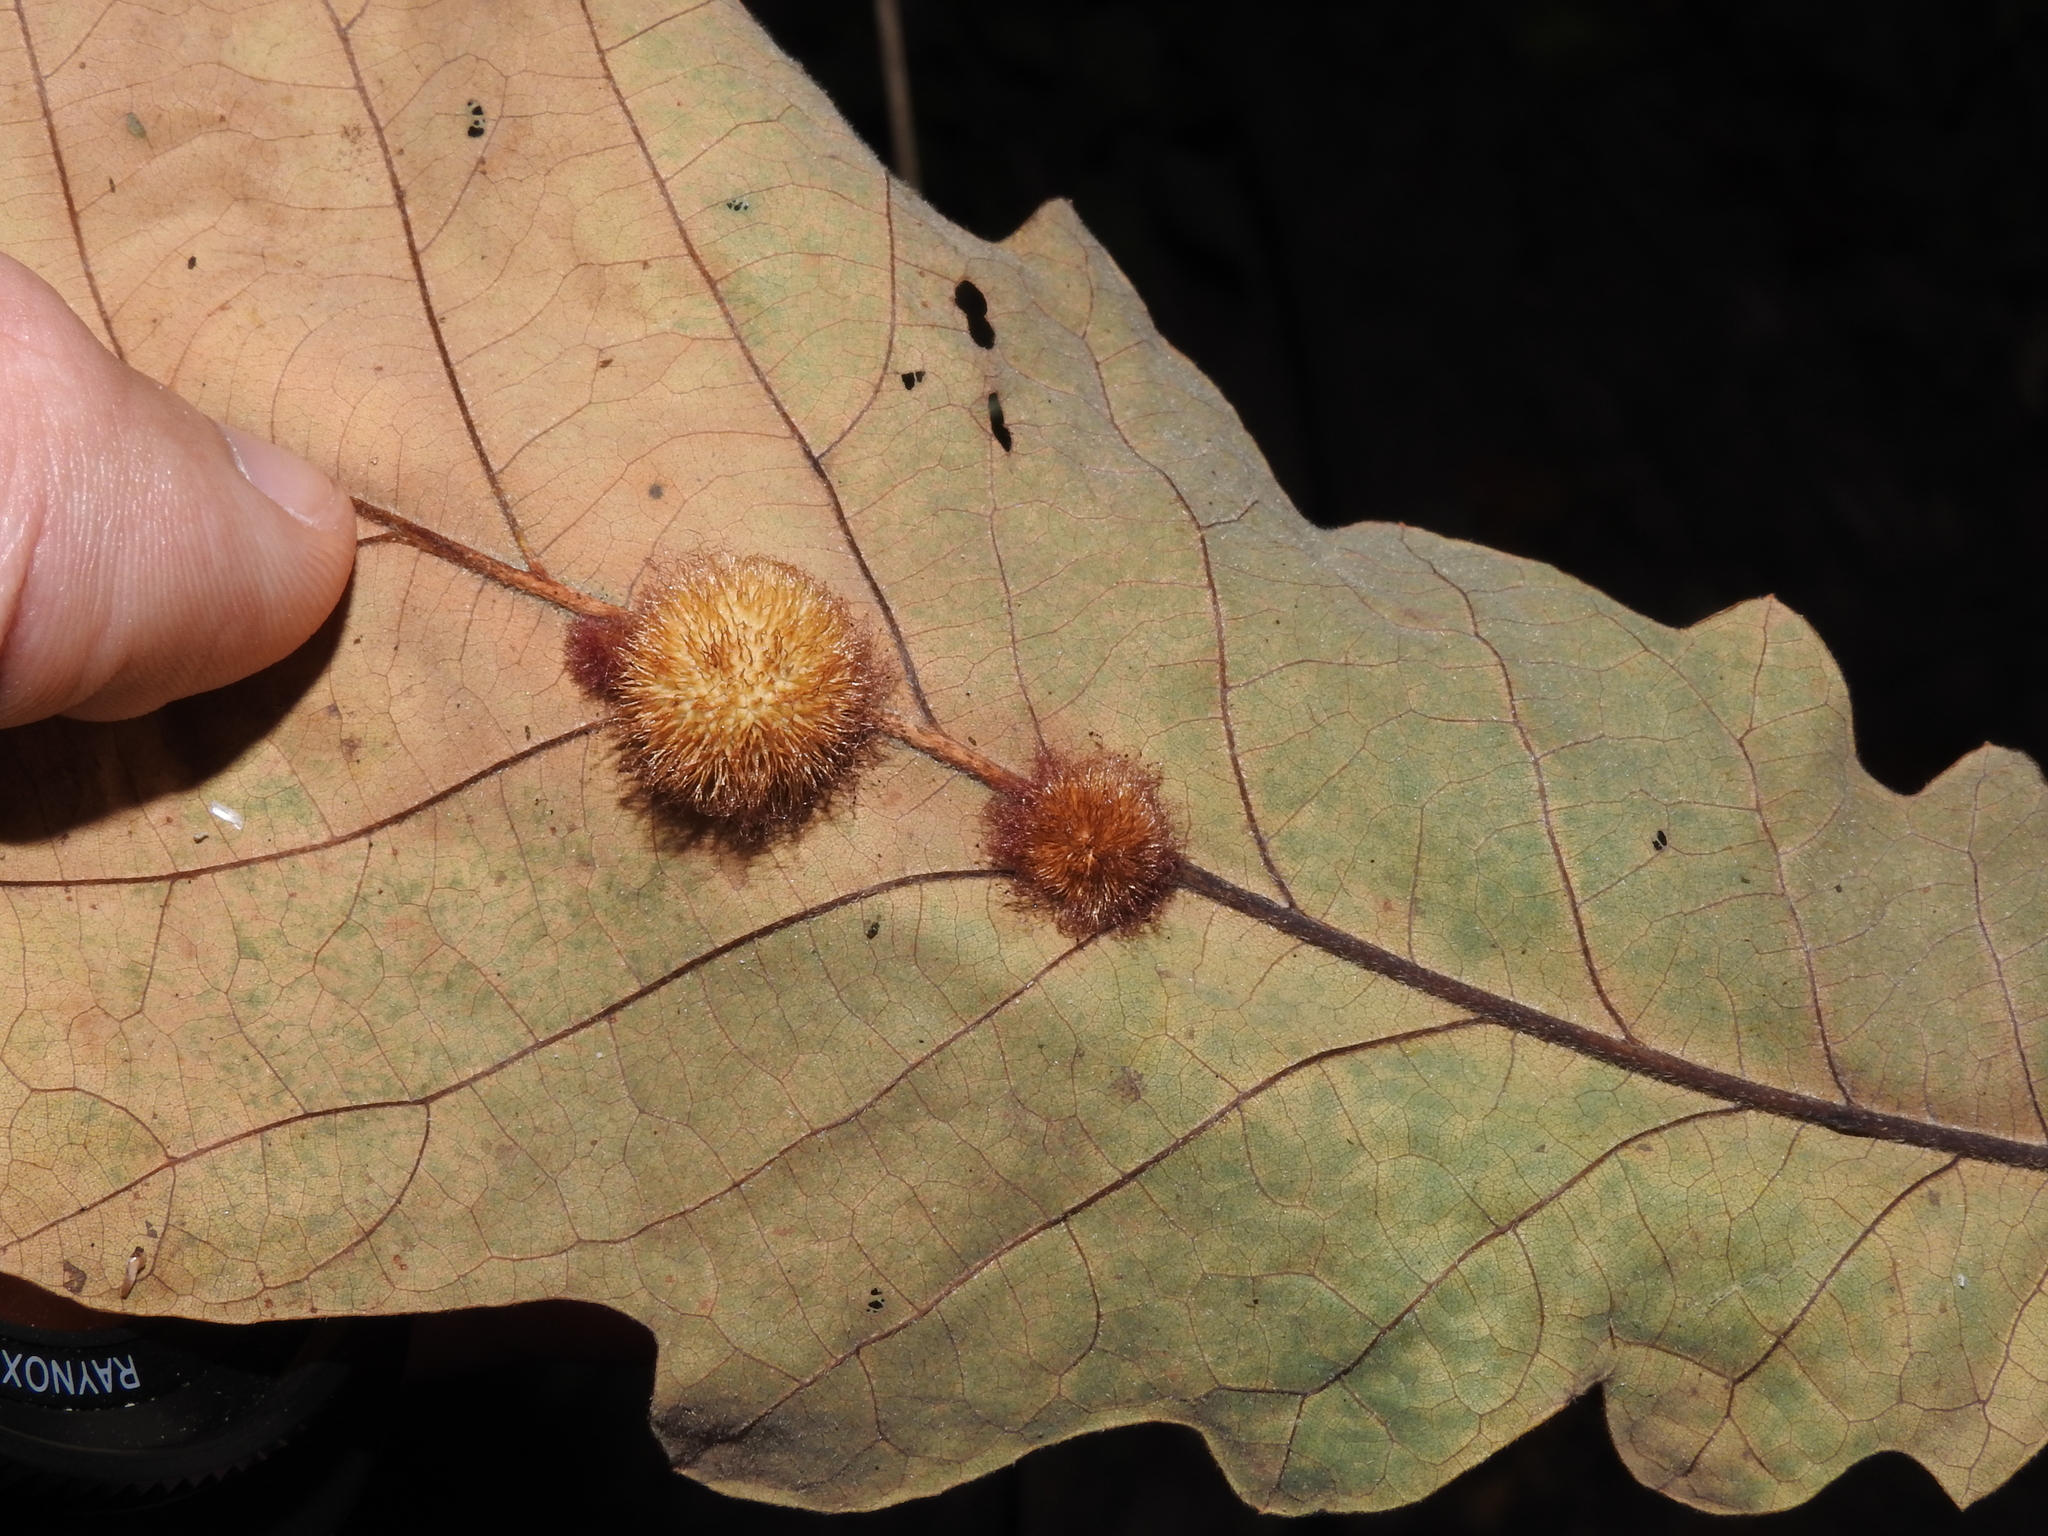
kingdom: Animalia
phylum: Arthropoda
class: Insecta
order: Hymenoptera
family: Cynipidae
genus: Acraspis
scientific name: Acraspis villosa
